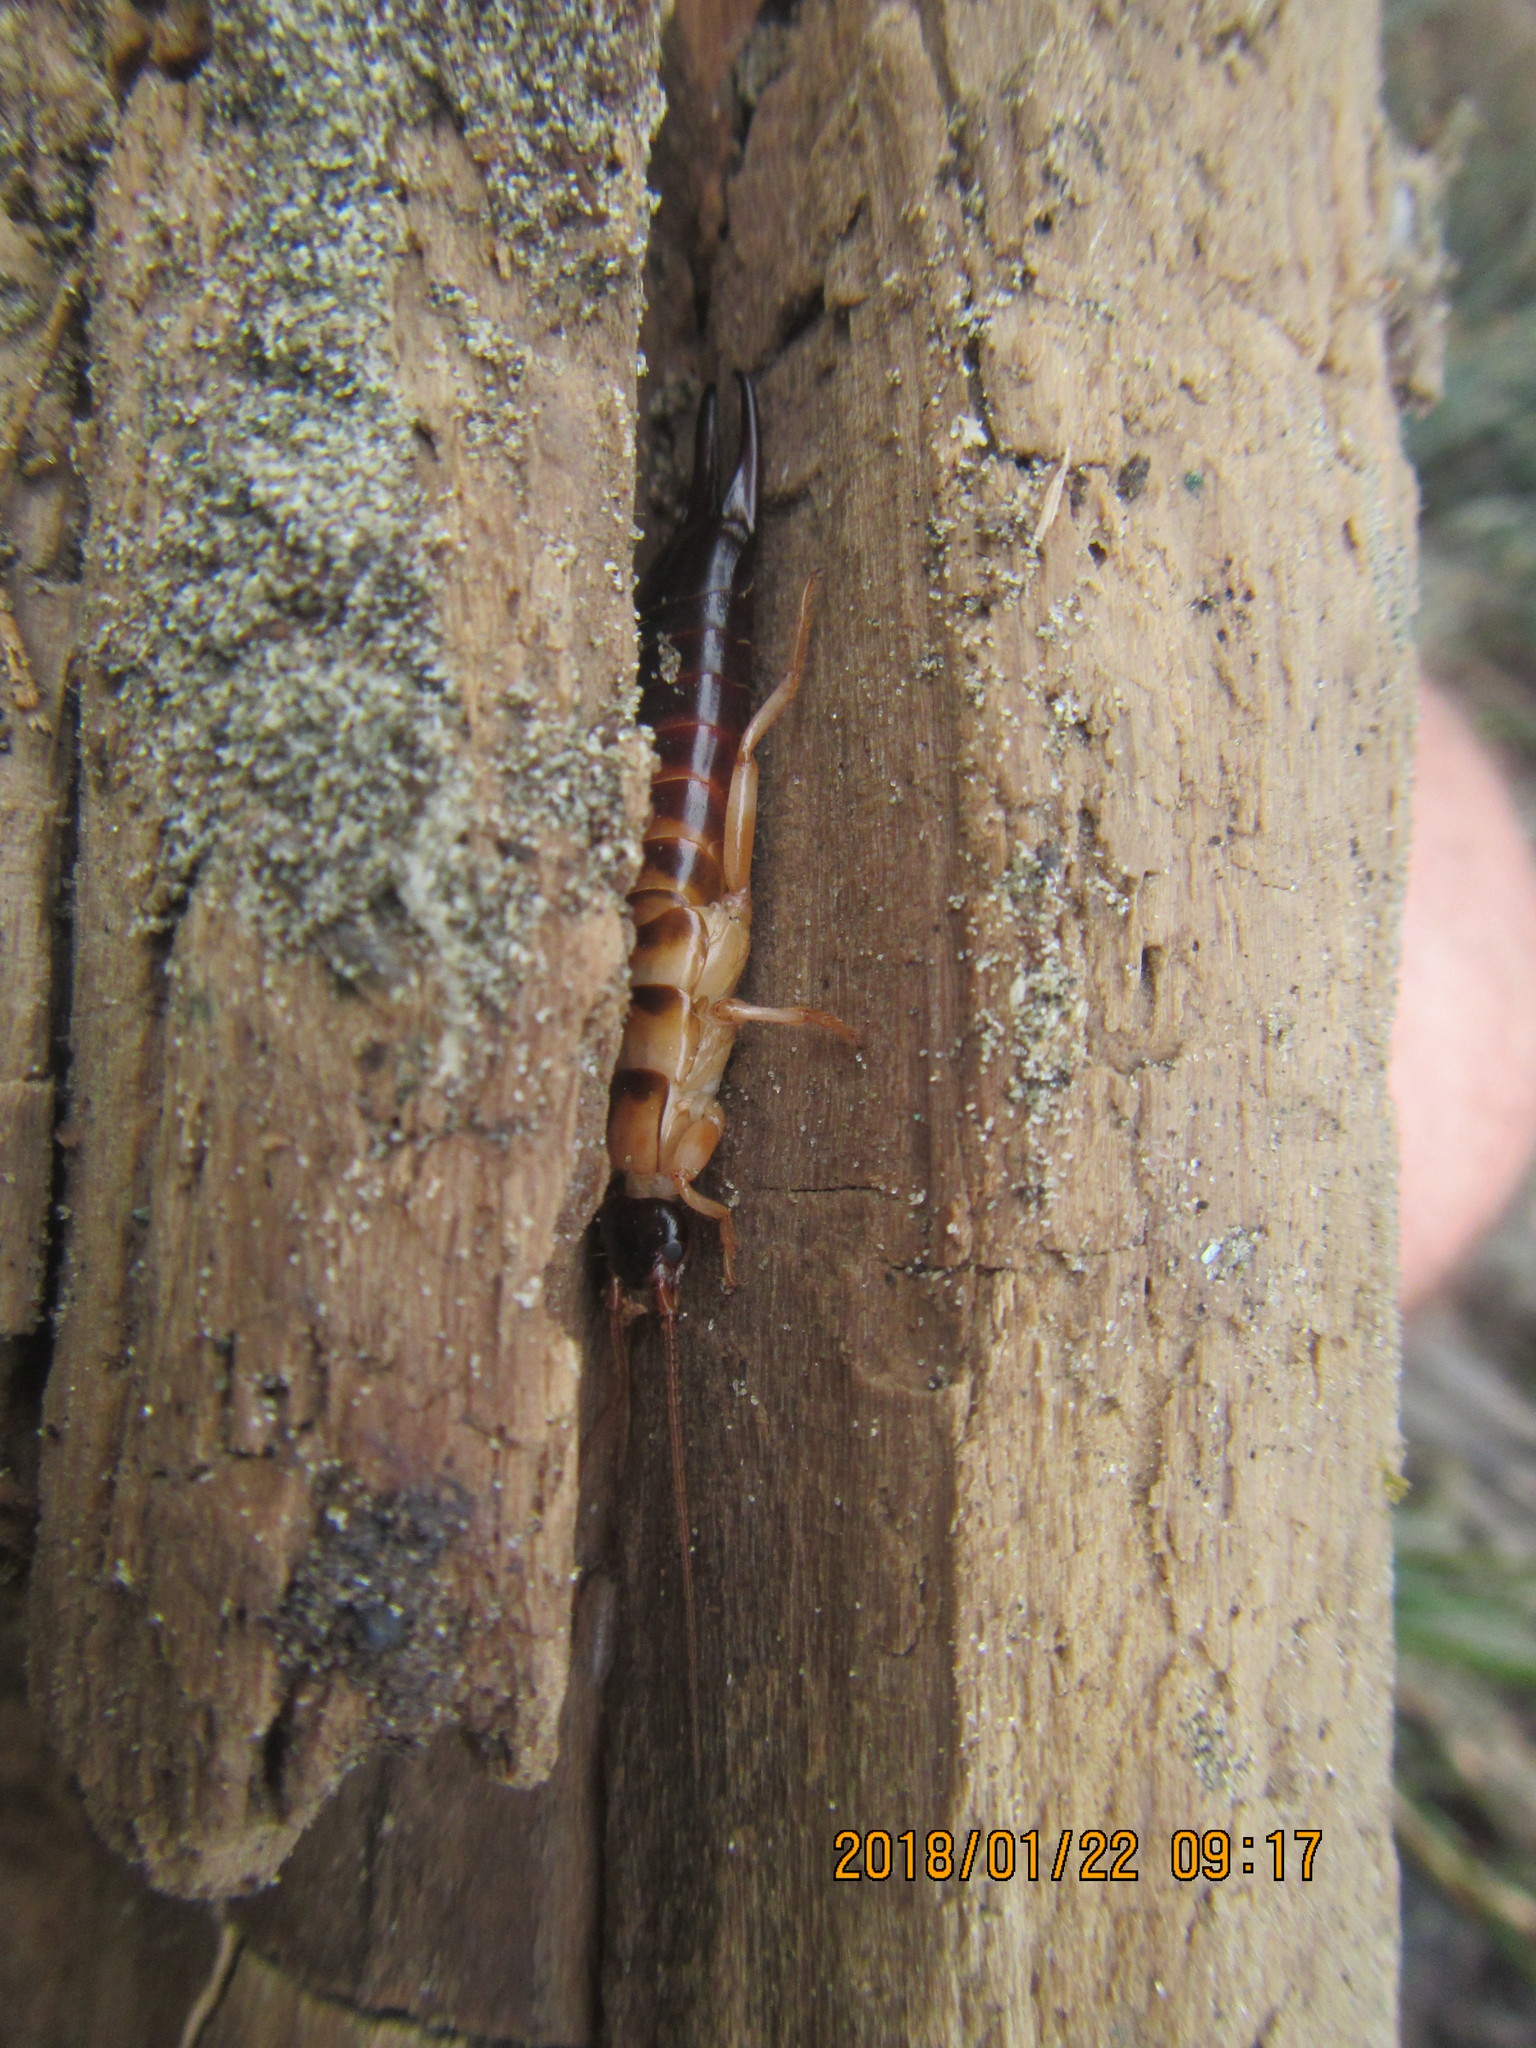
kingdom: Animalia
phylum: Arthropoda
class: Insecta
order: Dermaptera
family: Anisolabididae
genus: Anisolabis
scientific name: Anisolabis littorea
